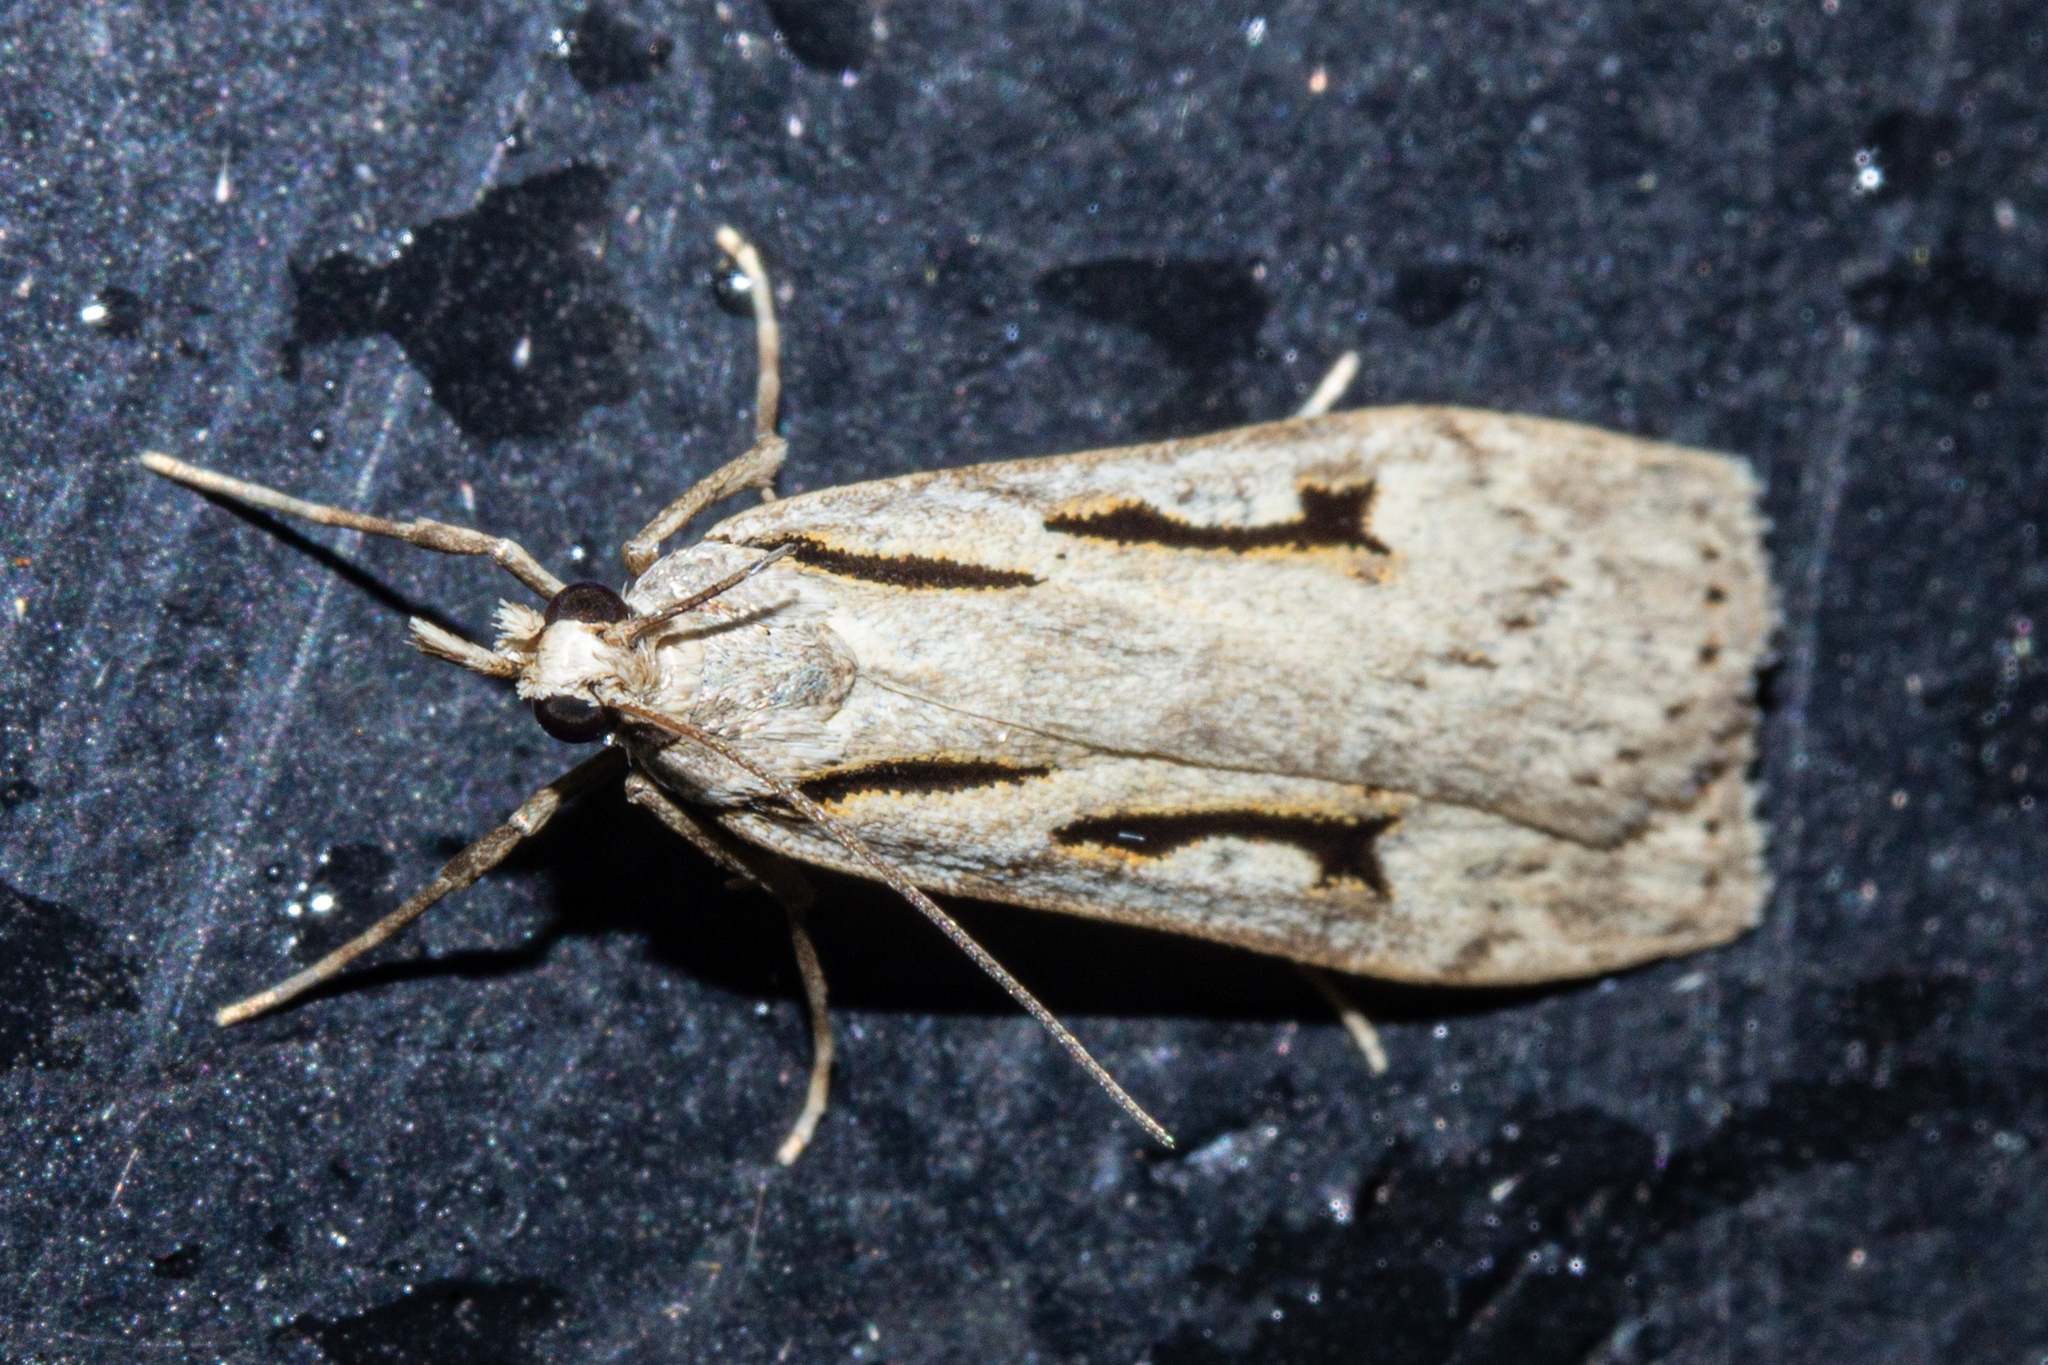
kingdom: Animalia
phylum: Arthropoda
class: Insecta
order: Lepidoptera
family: Crambidae
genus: Scoparia
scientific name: Scoparia rotuellus
